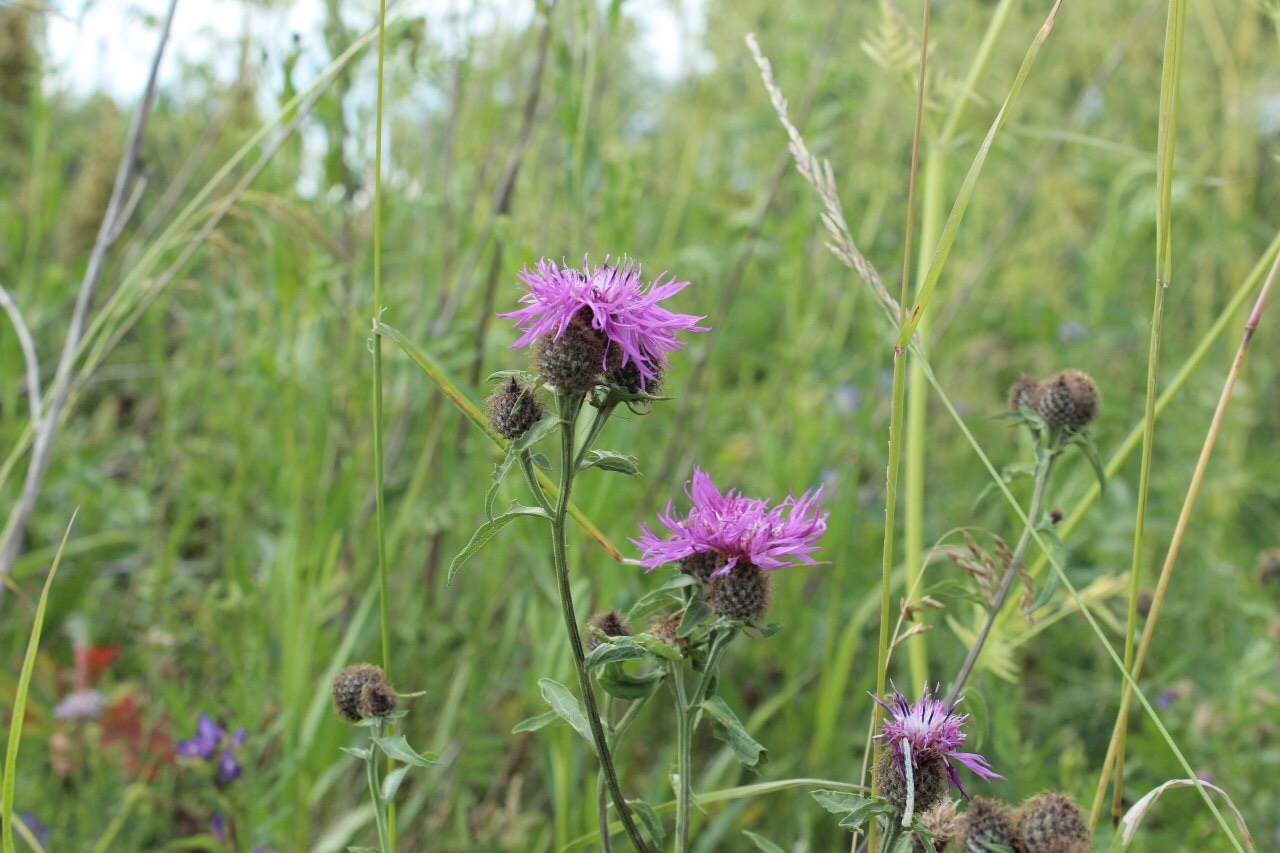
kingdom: Plantae
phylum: Tracheophyta
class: Magnoliopsida
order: Asterales
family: Asteraceae
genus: Centaurea
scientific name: Centaurea pseudophrygia
